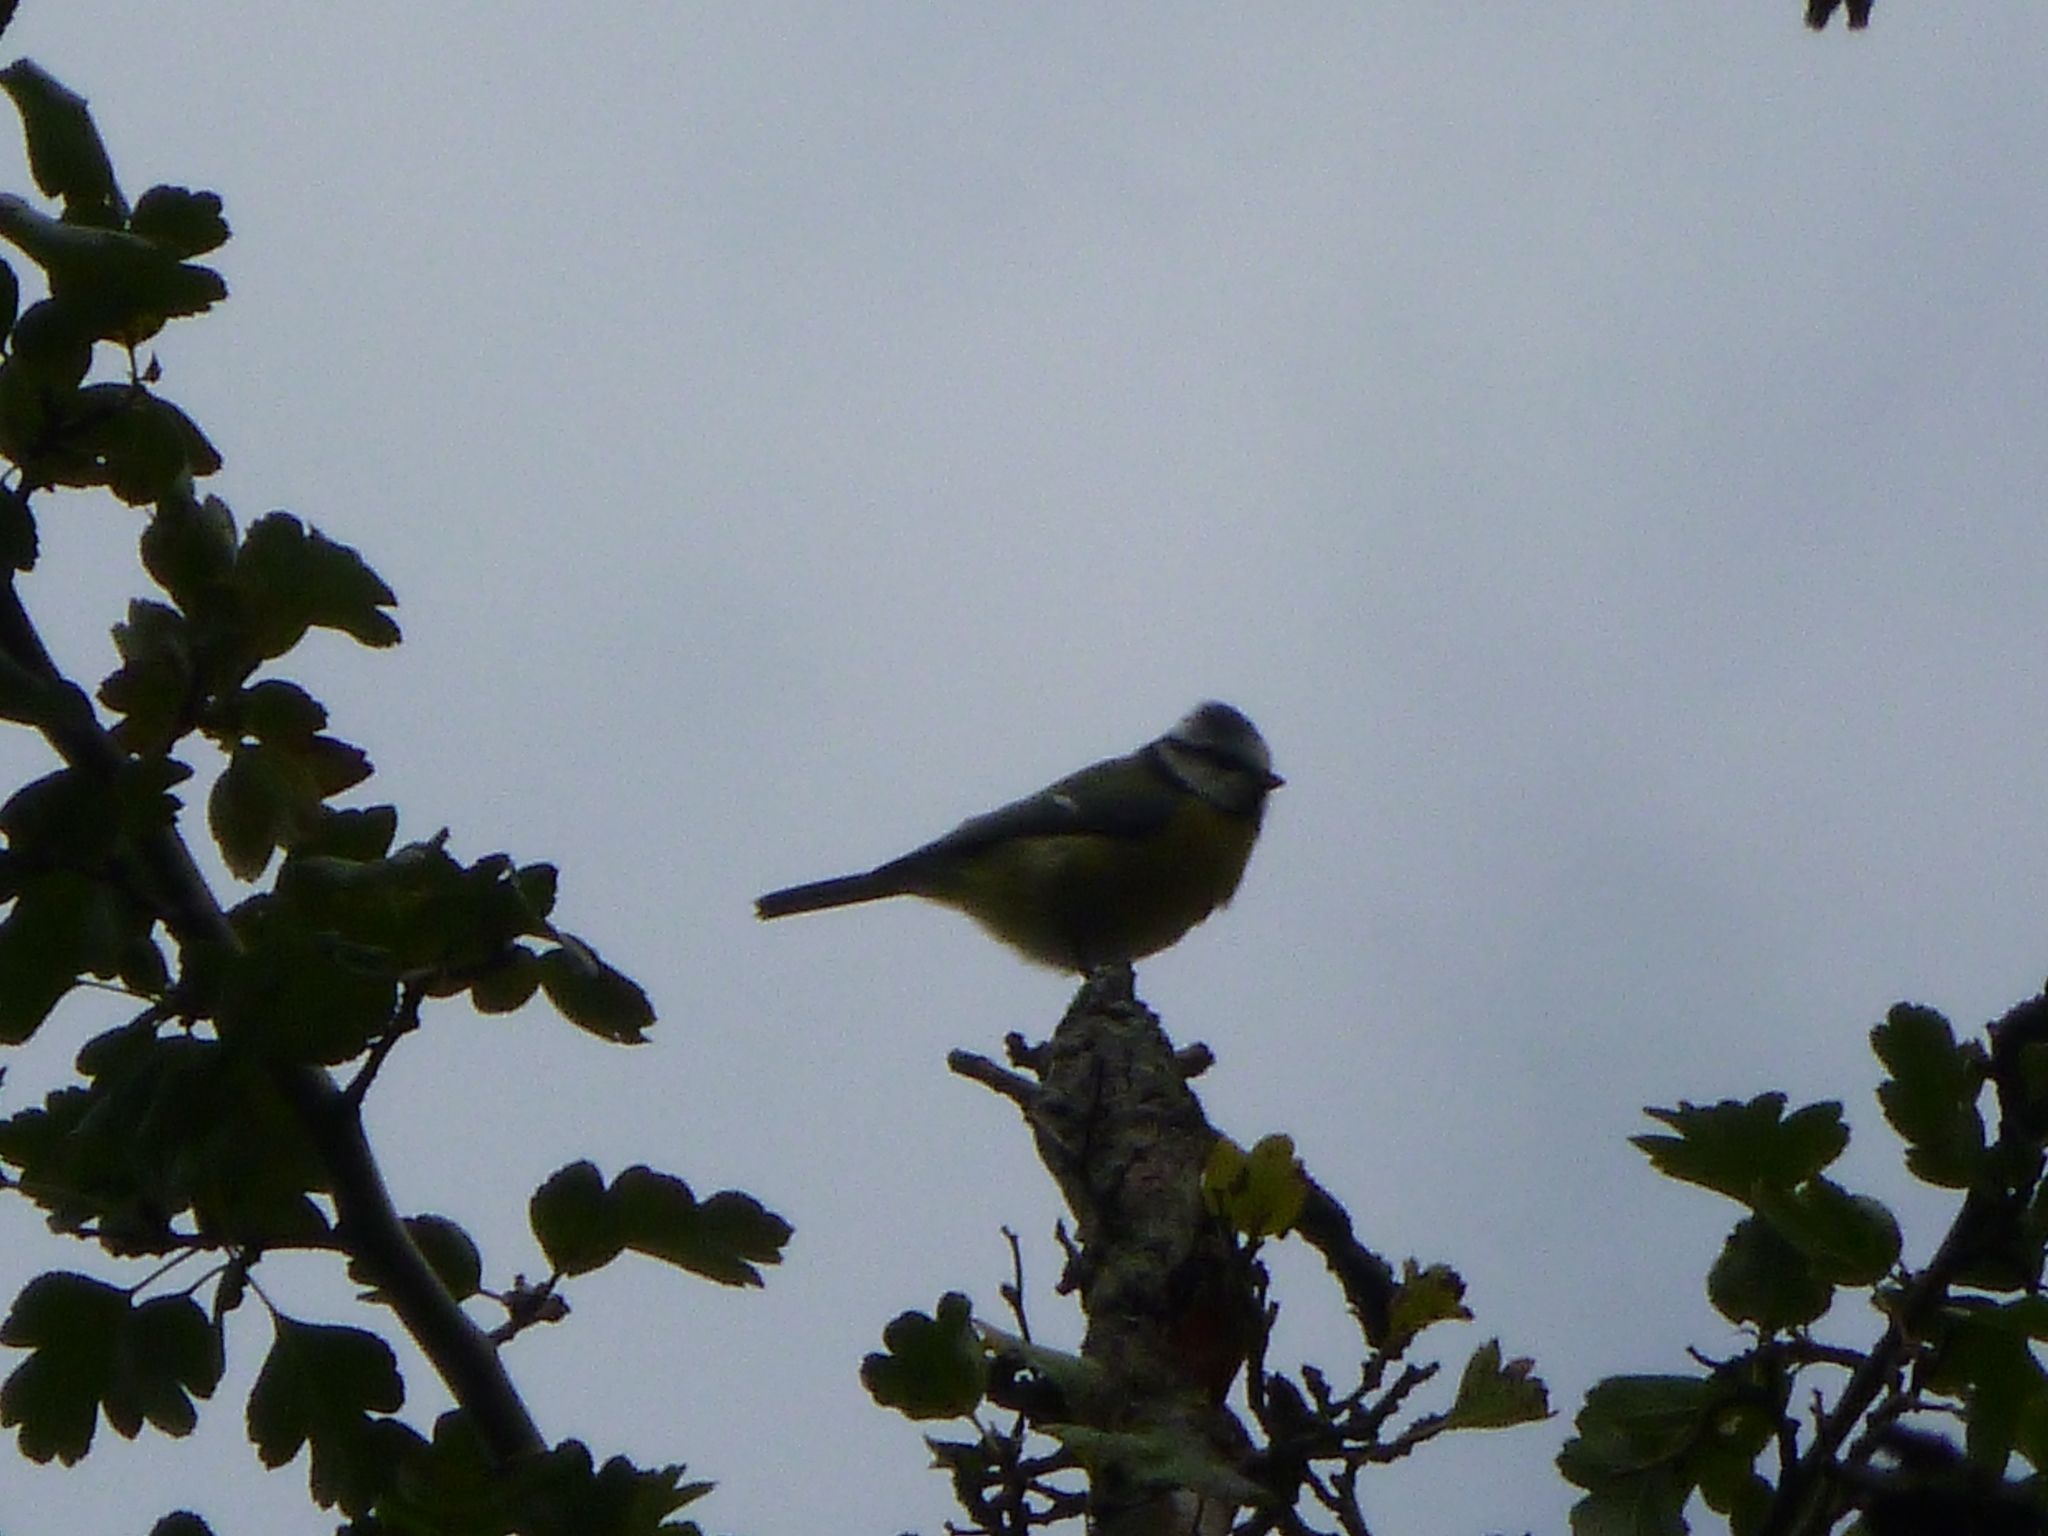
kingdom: Animalia
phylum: Chordata
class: Aves
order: Passeriformes
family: Paridae
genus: Cyanistes
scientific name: Cyanistes caeruleus
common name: Eurasian blue tit
